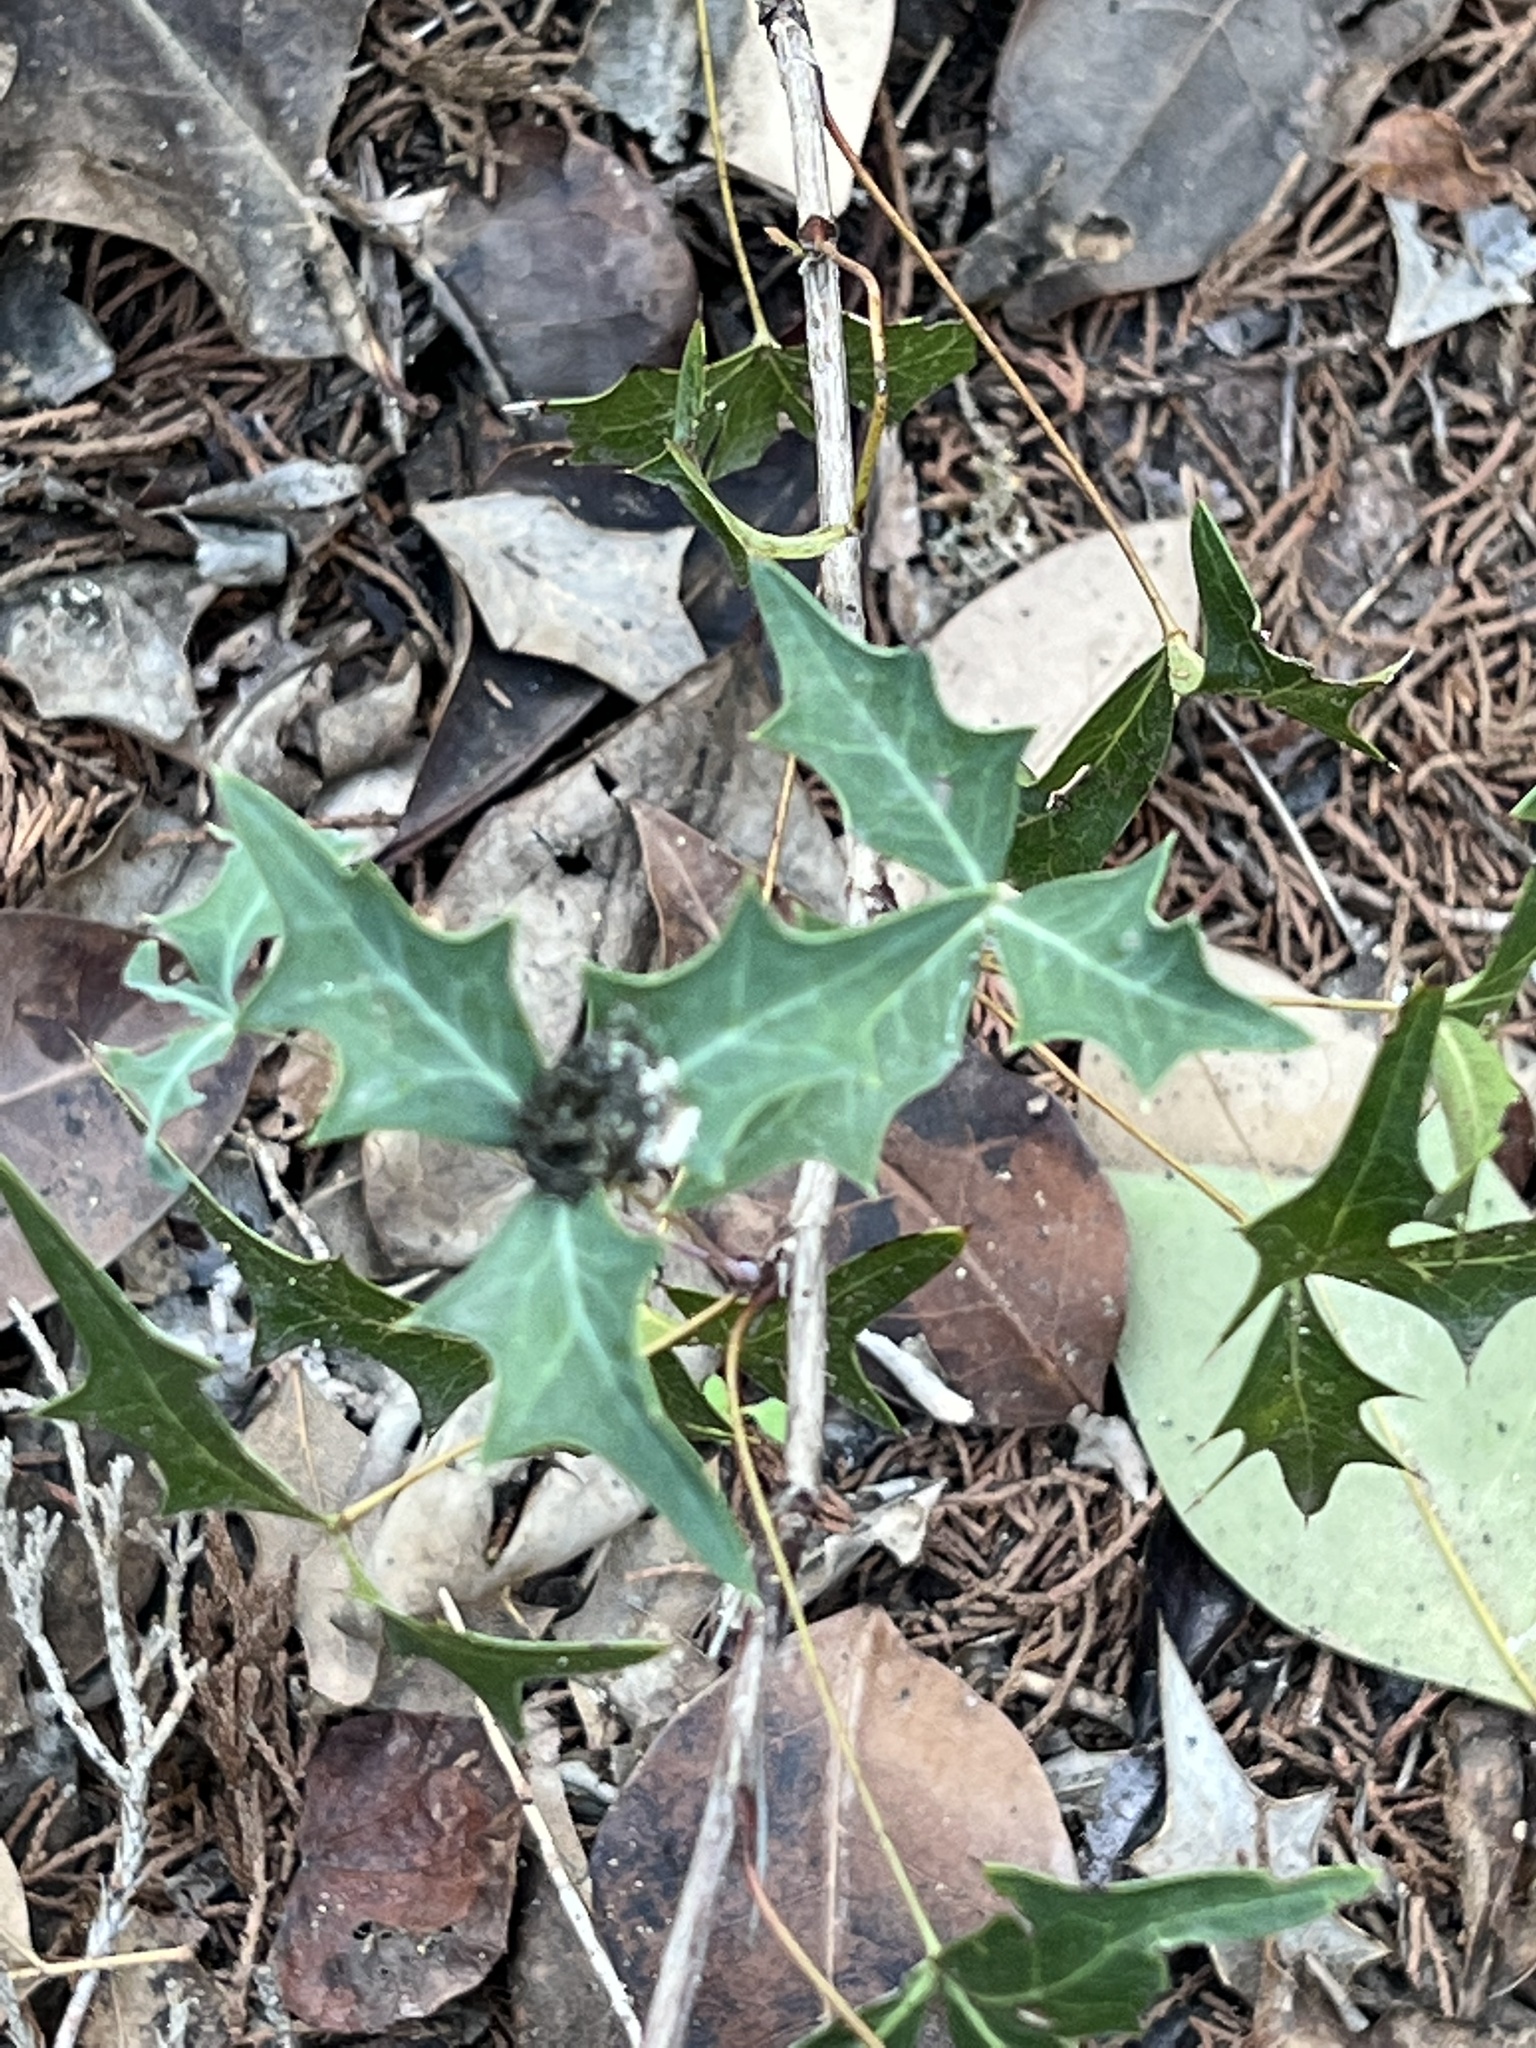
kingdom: Plantae
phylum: Tracheophyta
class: Magnoliopsida
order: Ranunculales
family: Berberidaceae
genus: Alloberberis
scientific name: Alloberberis trifoliolata
